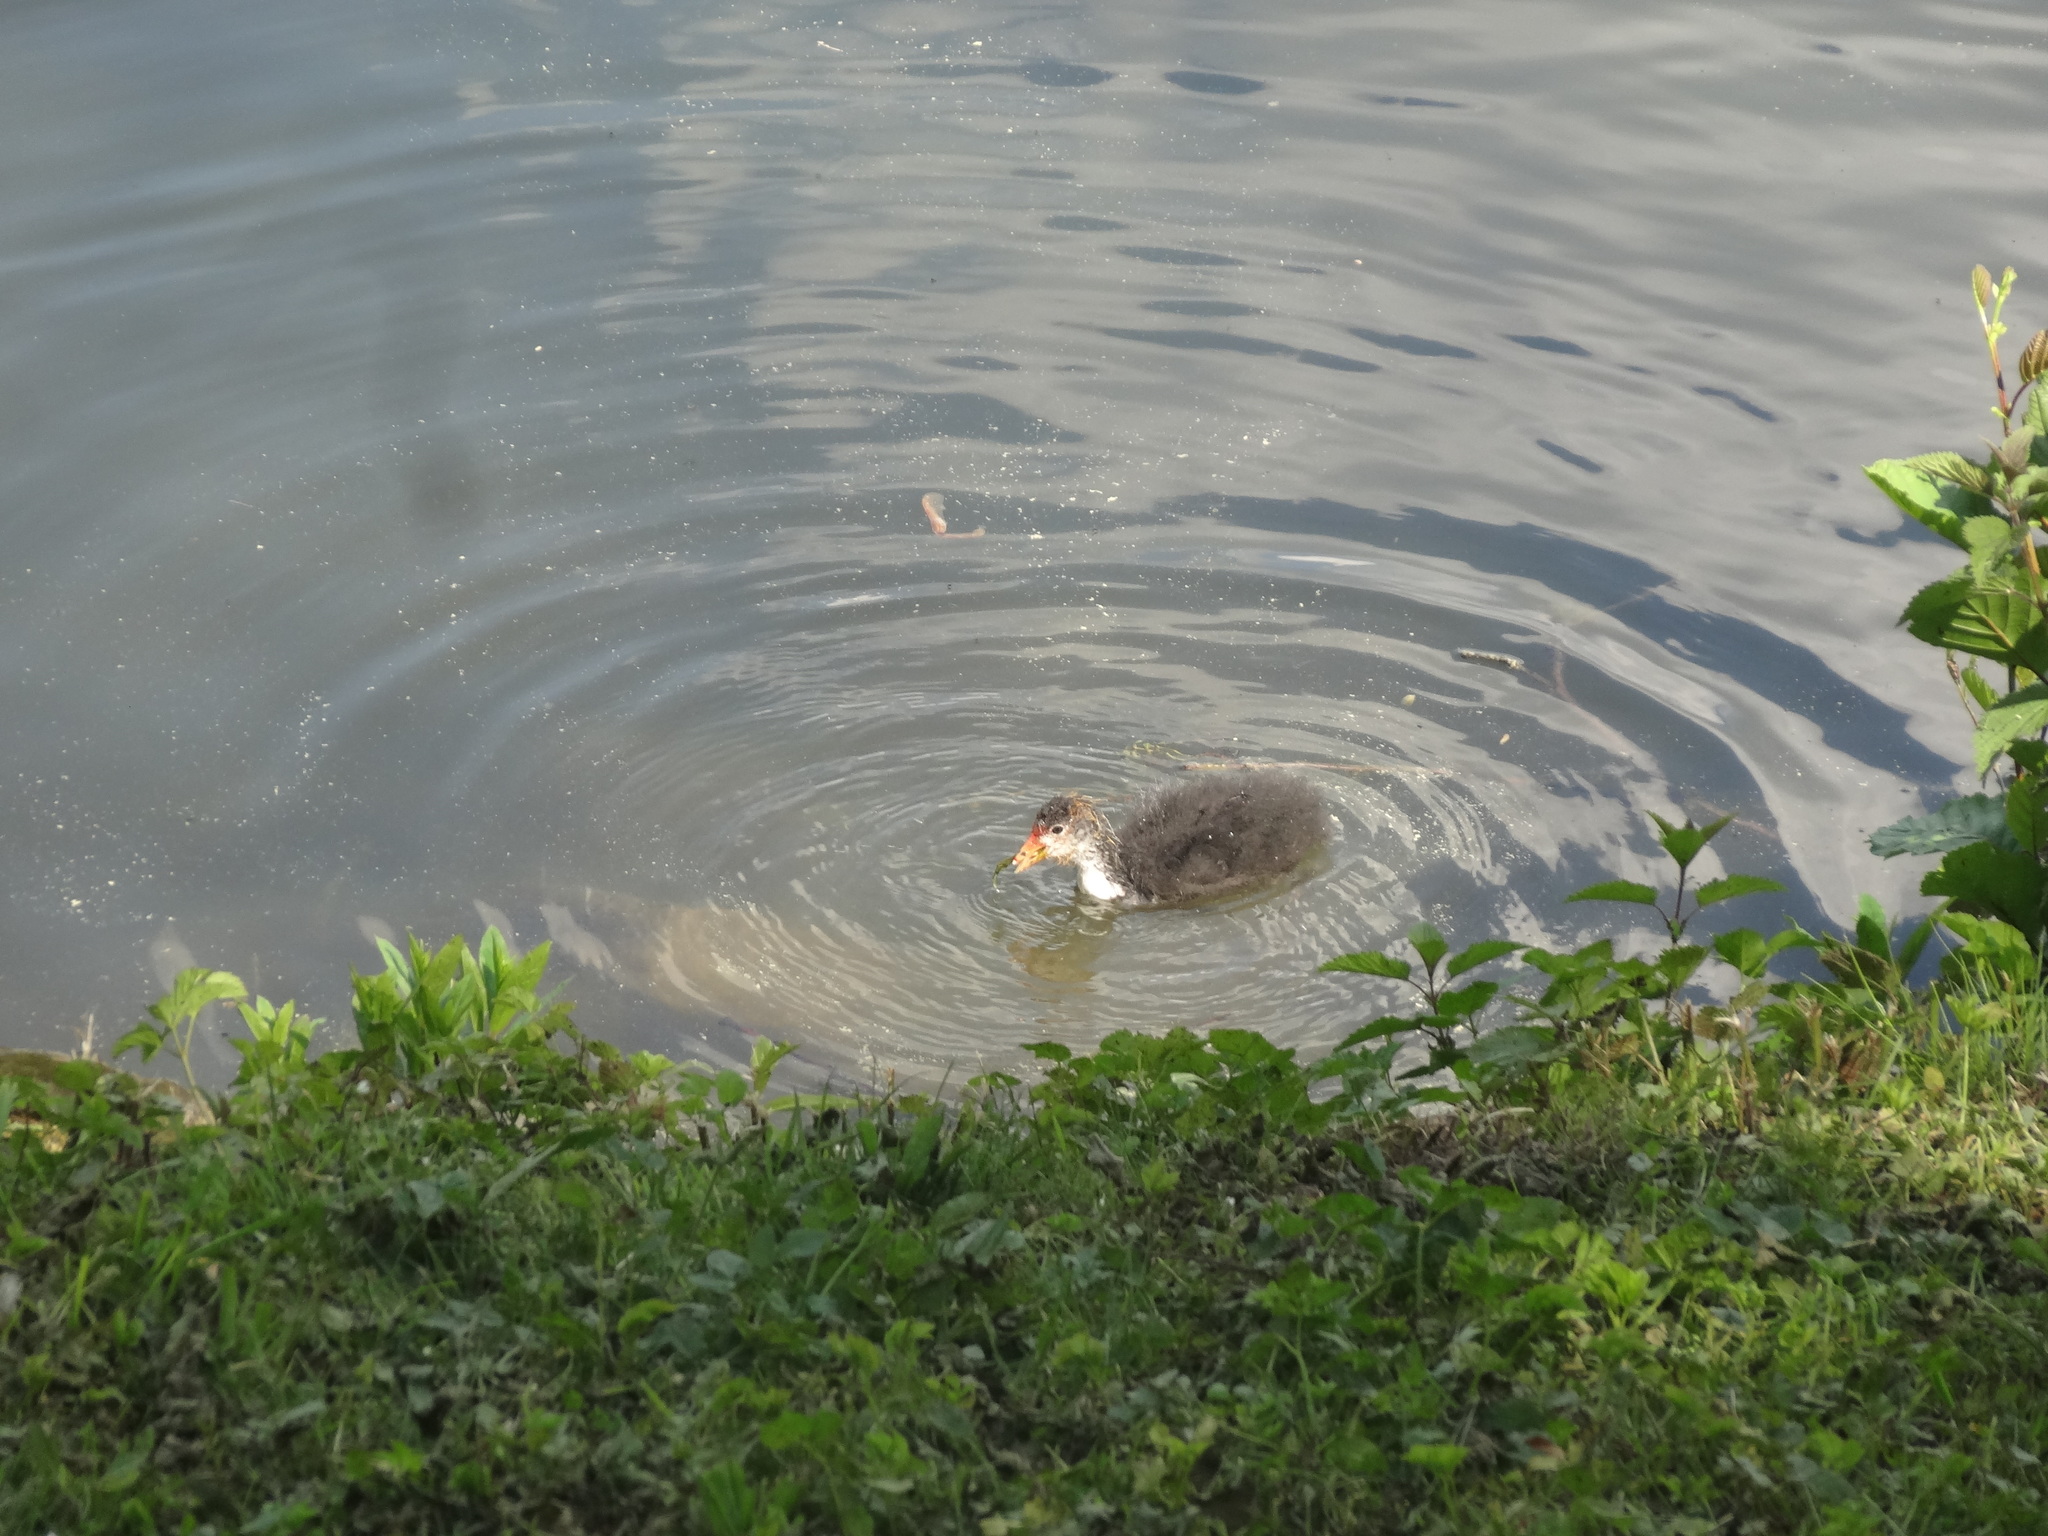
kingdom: Animalia
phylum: Chordata
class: Aves
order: Gruiformes
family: Rallidae
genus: Fulica
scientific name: Fulica atra
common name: Eurasian coot
